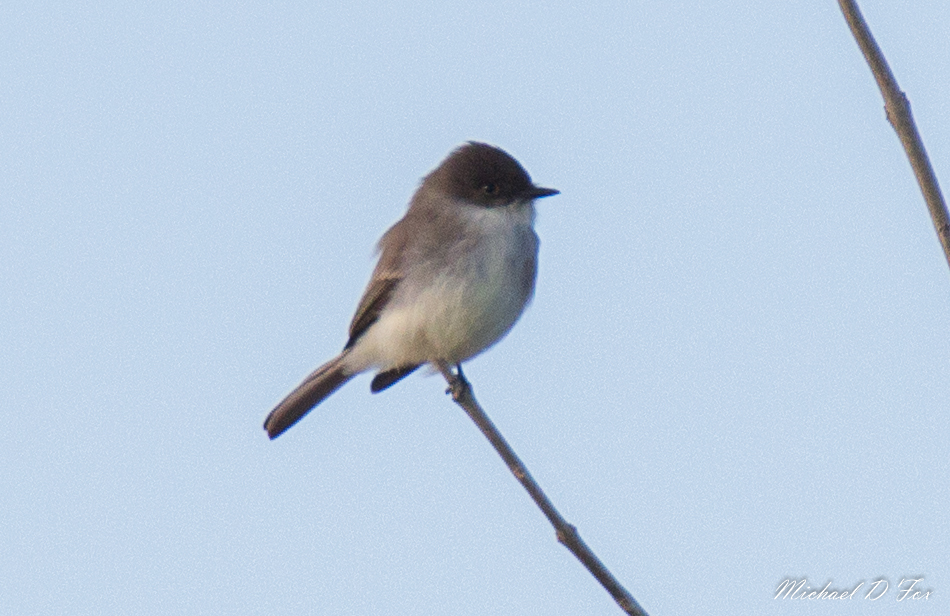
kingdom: Animalia
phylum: Chordata
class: Aves
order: Passeriformes
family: Tyrannidae
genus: Sayornis
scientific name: Sayornis phoebe
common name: Eastern phoebe
